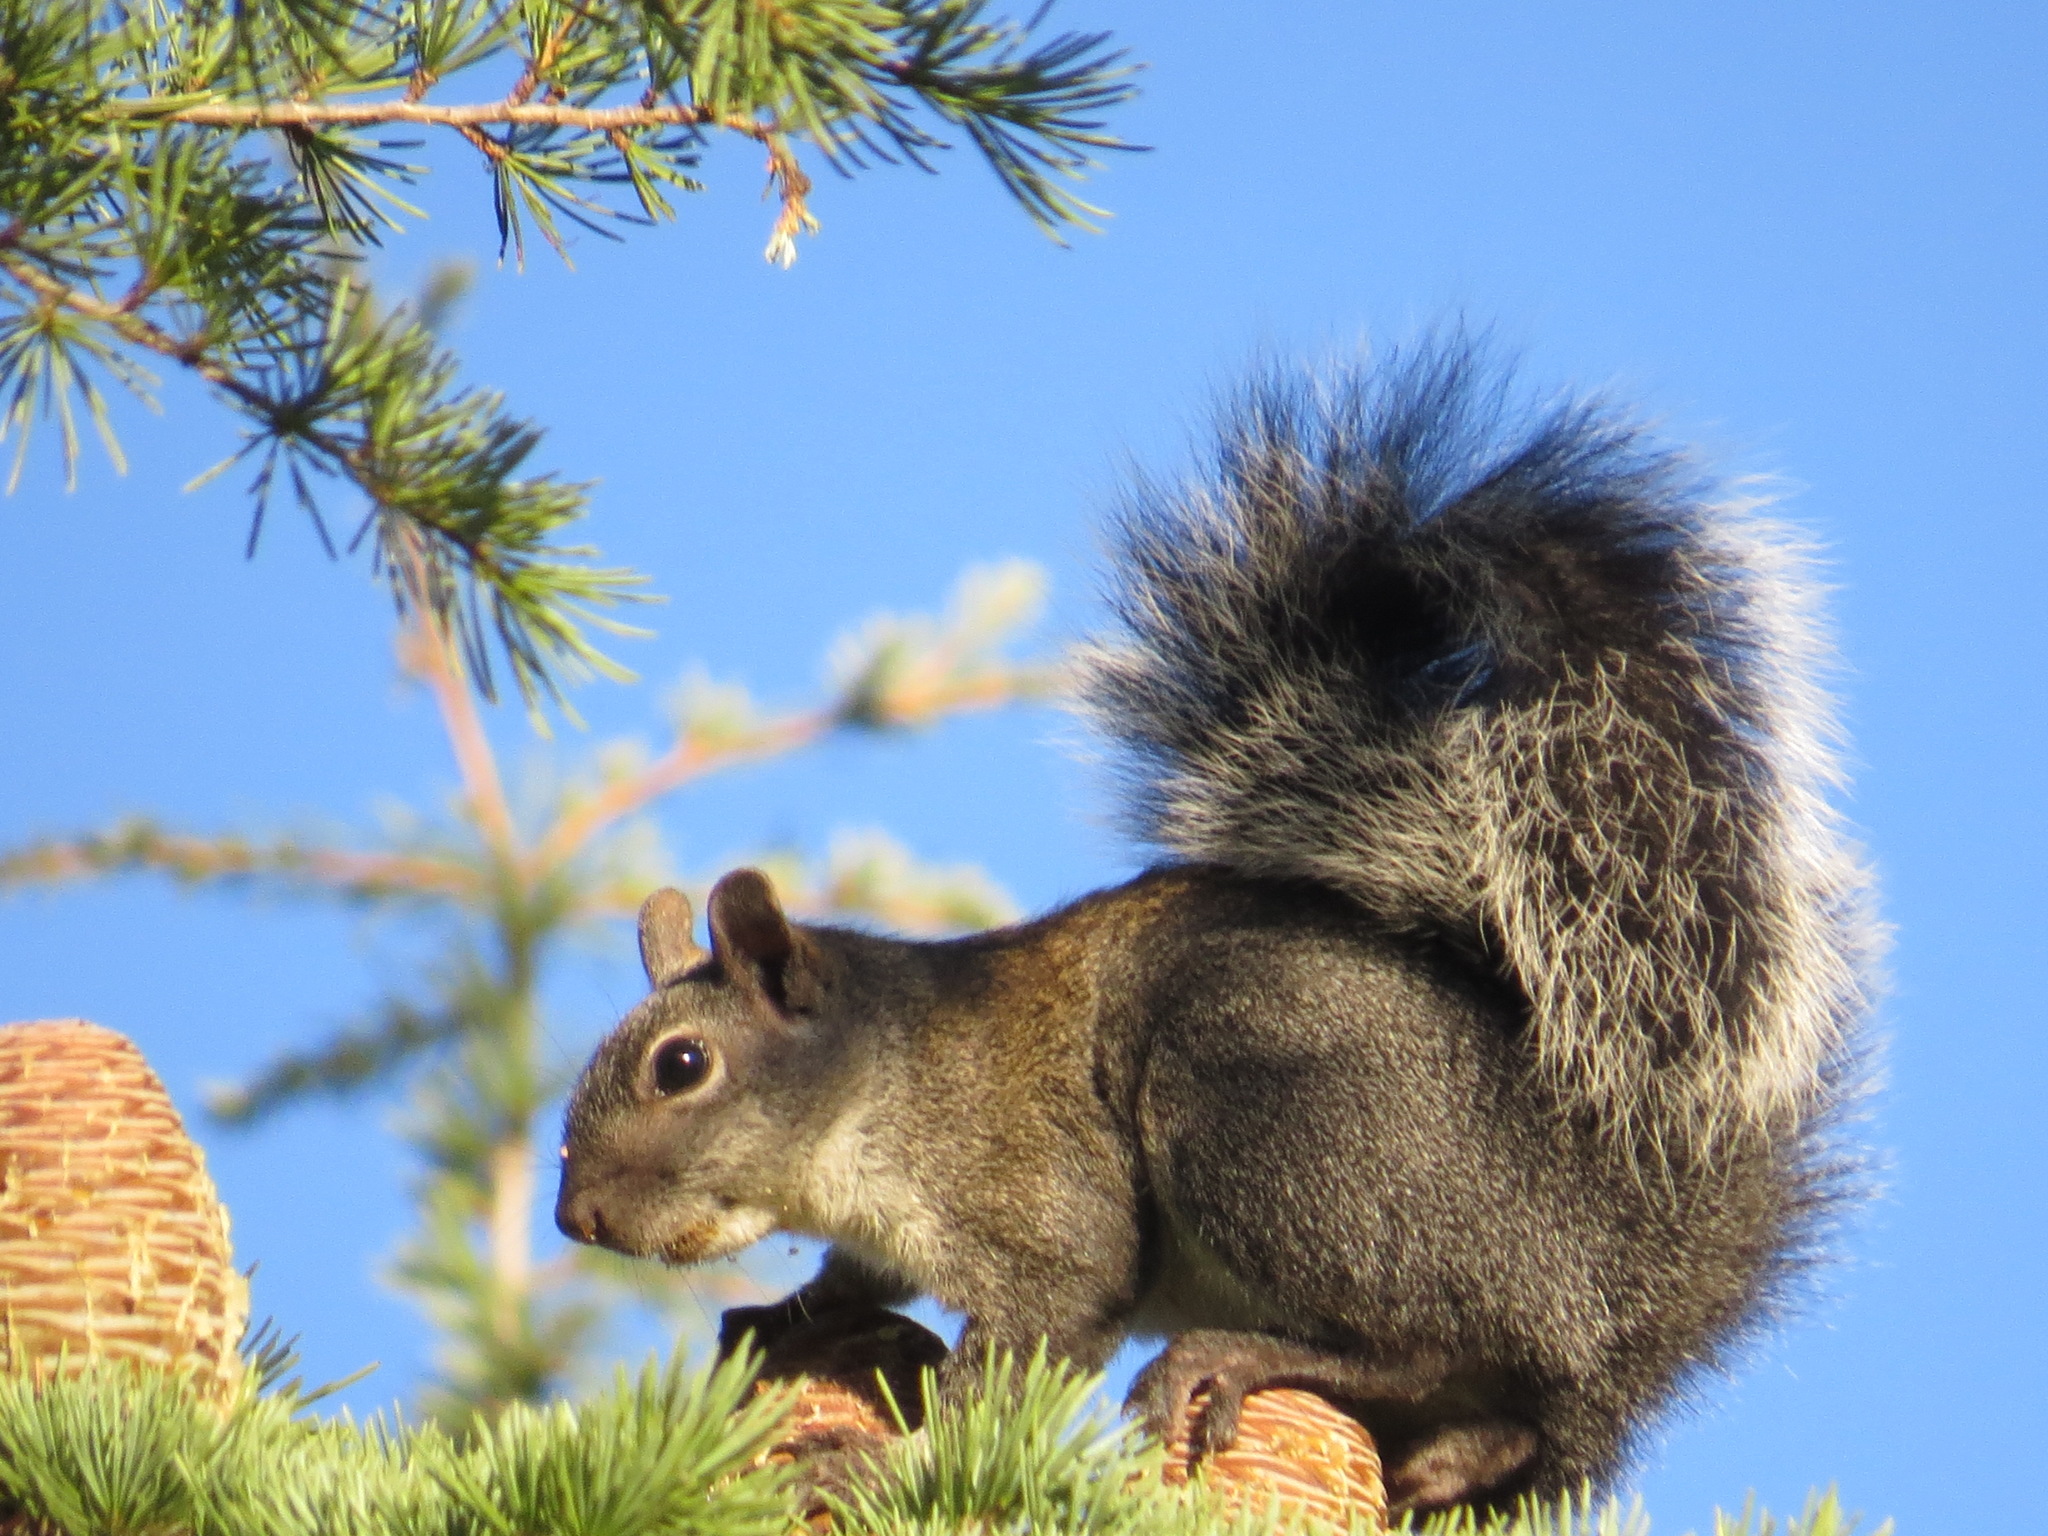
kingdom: Animalia
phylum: Chordata
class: Mammalia
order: Rodentia
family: Sciuridae
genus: Sciurus
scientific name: Sciurus carolinensis
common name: Eastern gray squirrel
